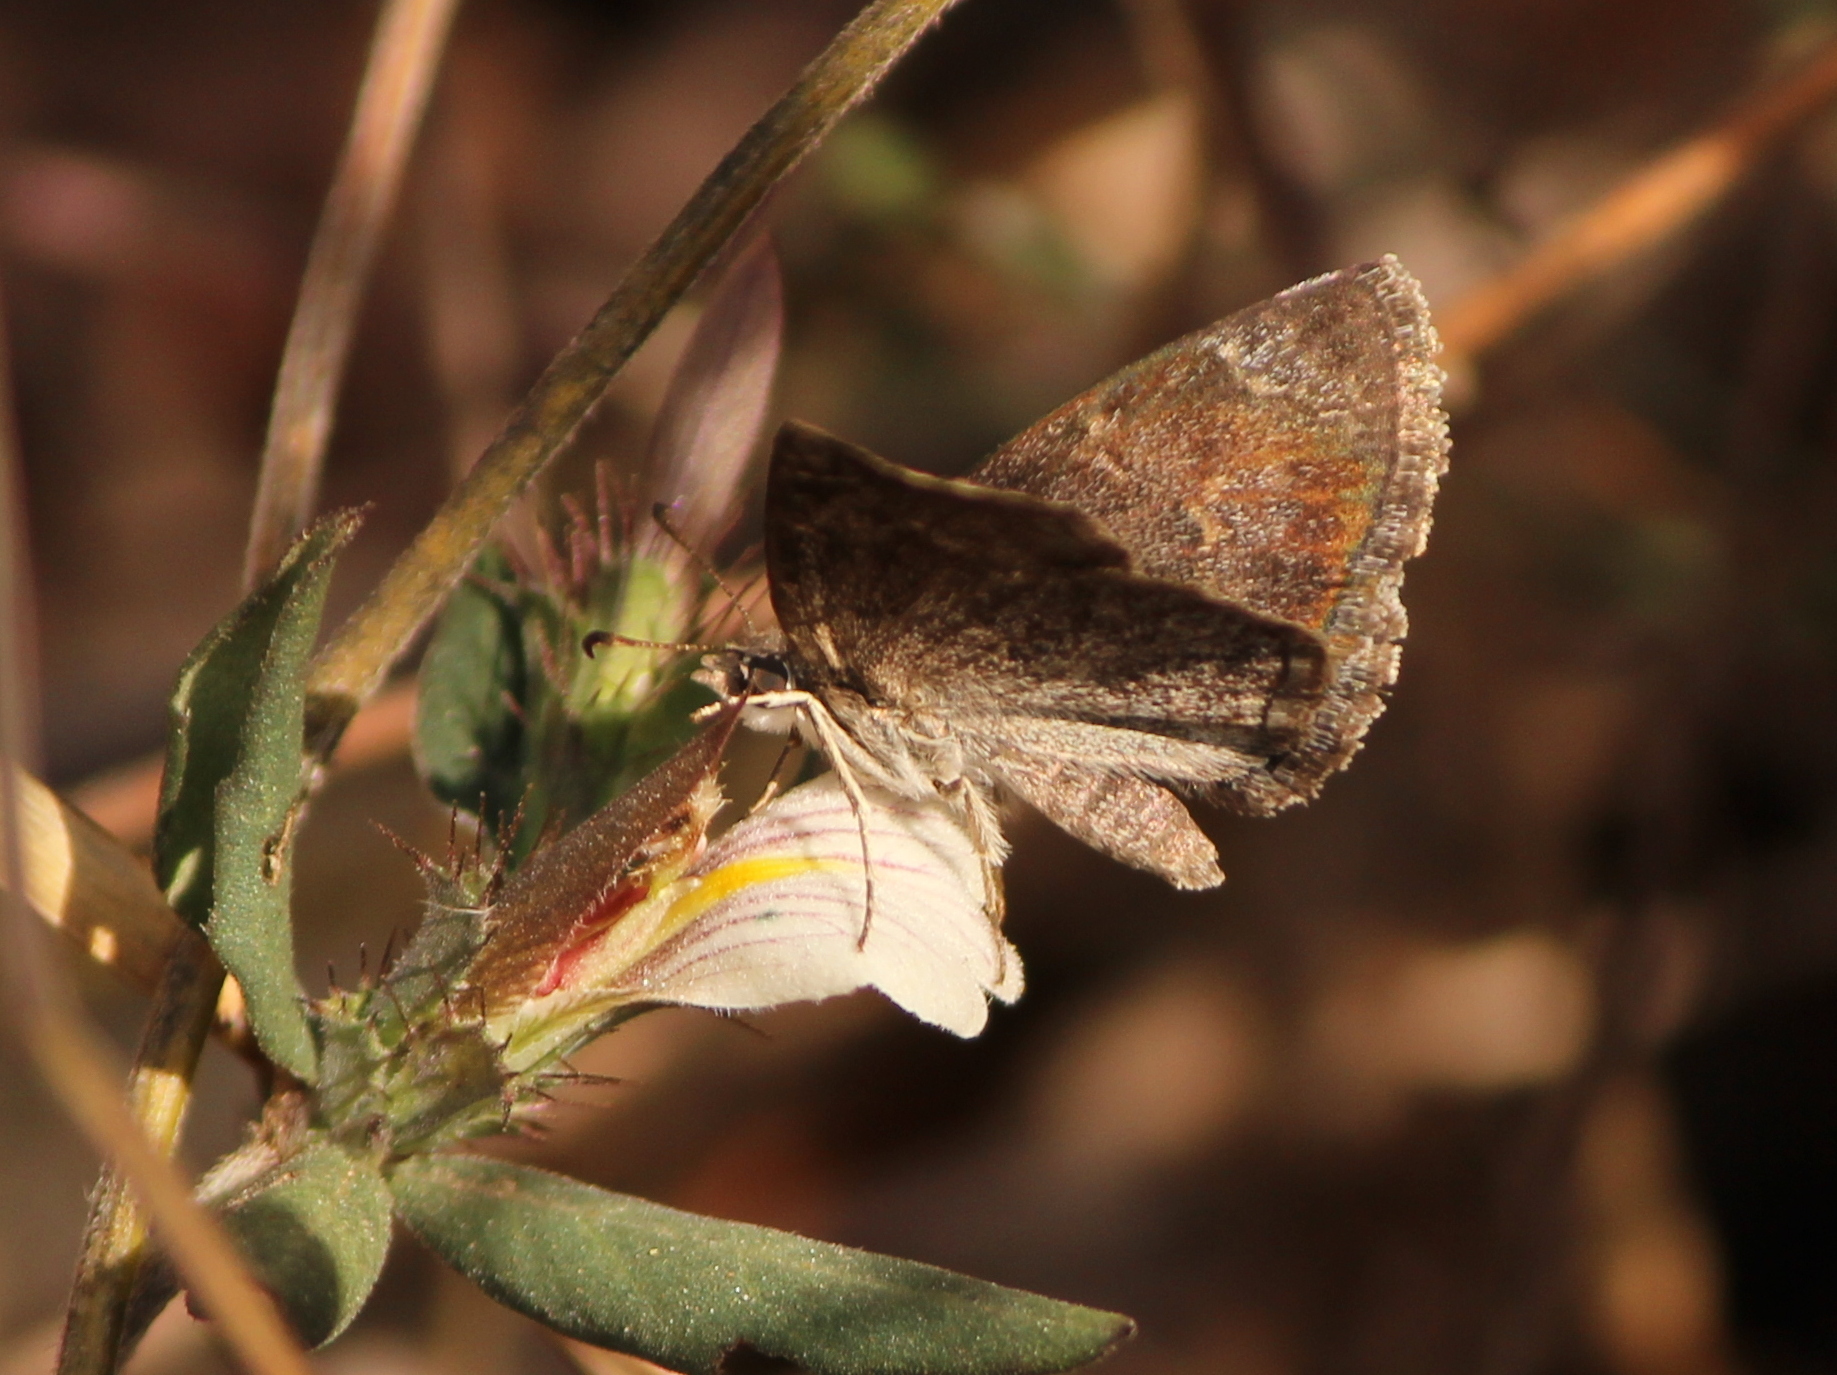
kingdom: Animalia
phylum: Arthropoda
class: Insecta
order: Lepidoptera
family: Hesperiidae
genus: Sarangesa
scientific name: Sarangesa purendra
